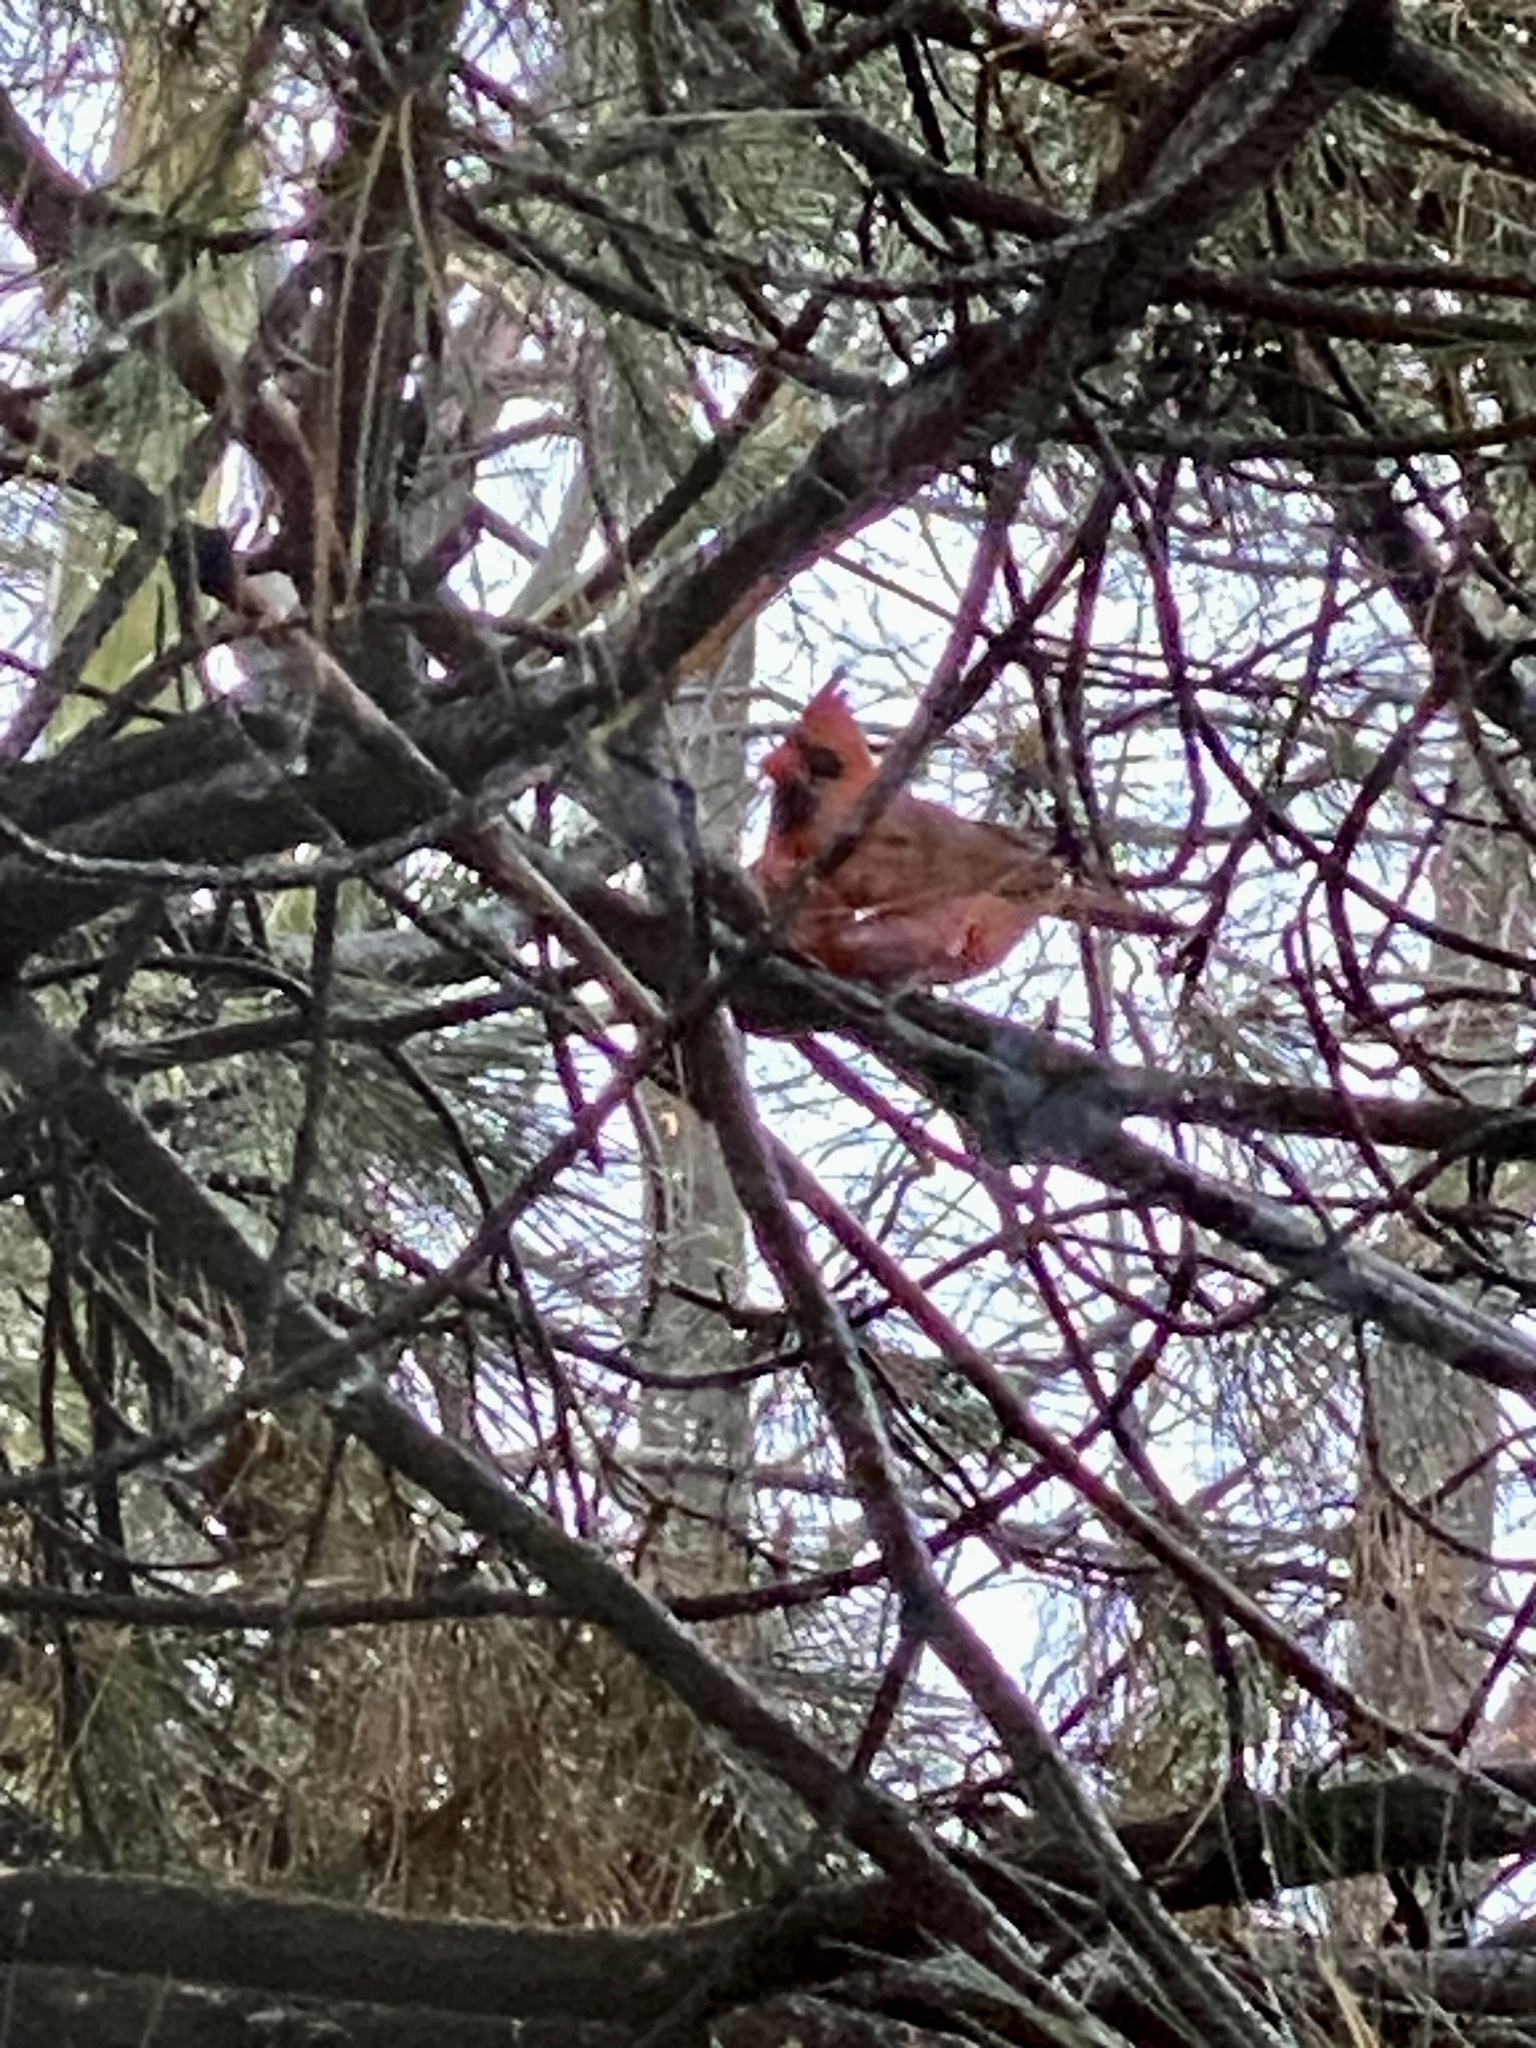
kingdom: Animalia
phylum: Chordata
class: Aves
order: Passeriformes
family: Cardinalidae
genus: Cardinalis
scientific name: Cardinalis cardinalis
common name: Northern cardinal
